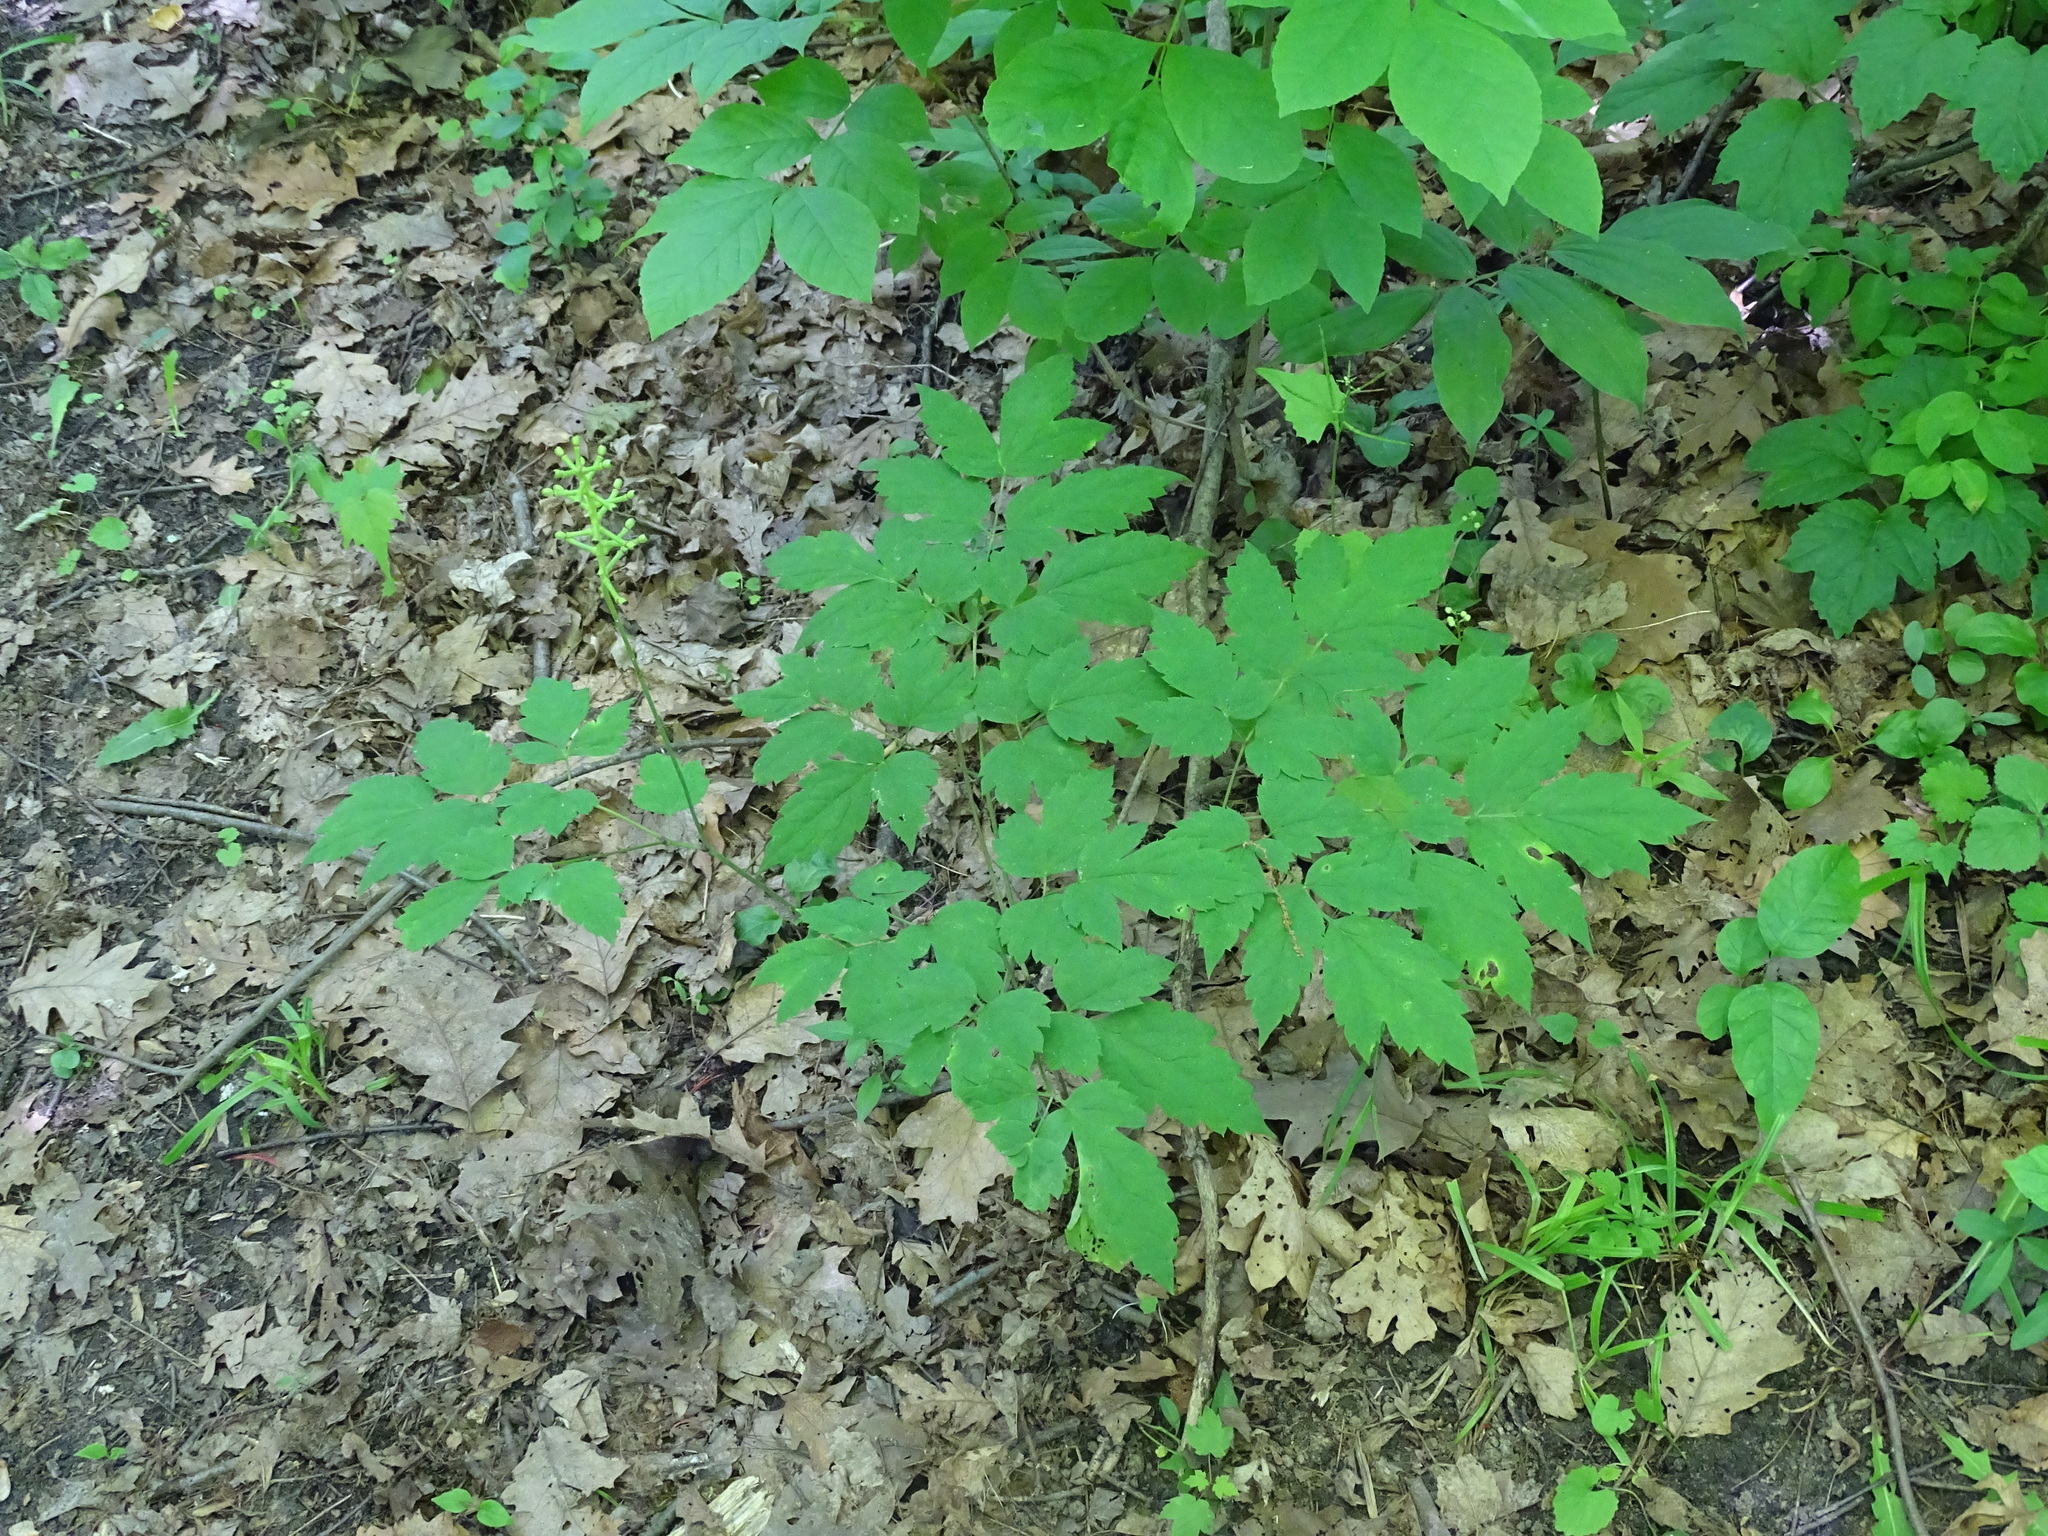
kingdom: Plantae
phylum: Tracheophyta
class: Magnoliopsida
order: Ranunculales
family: Ranunculaceae
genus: Actaea
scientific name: Actaea pachypoda
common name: Doll's-eyes
